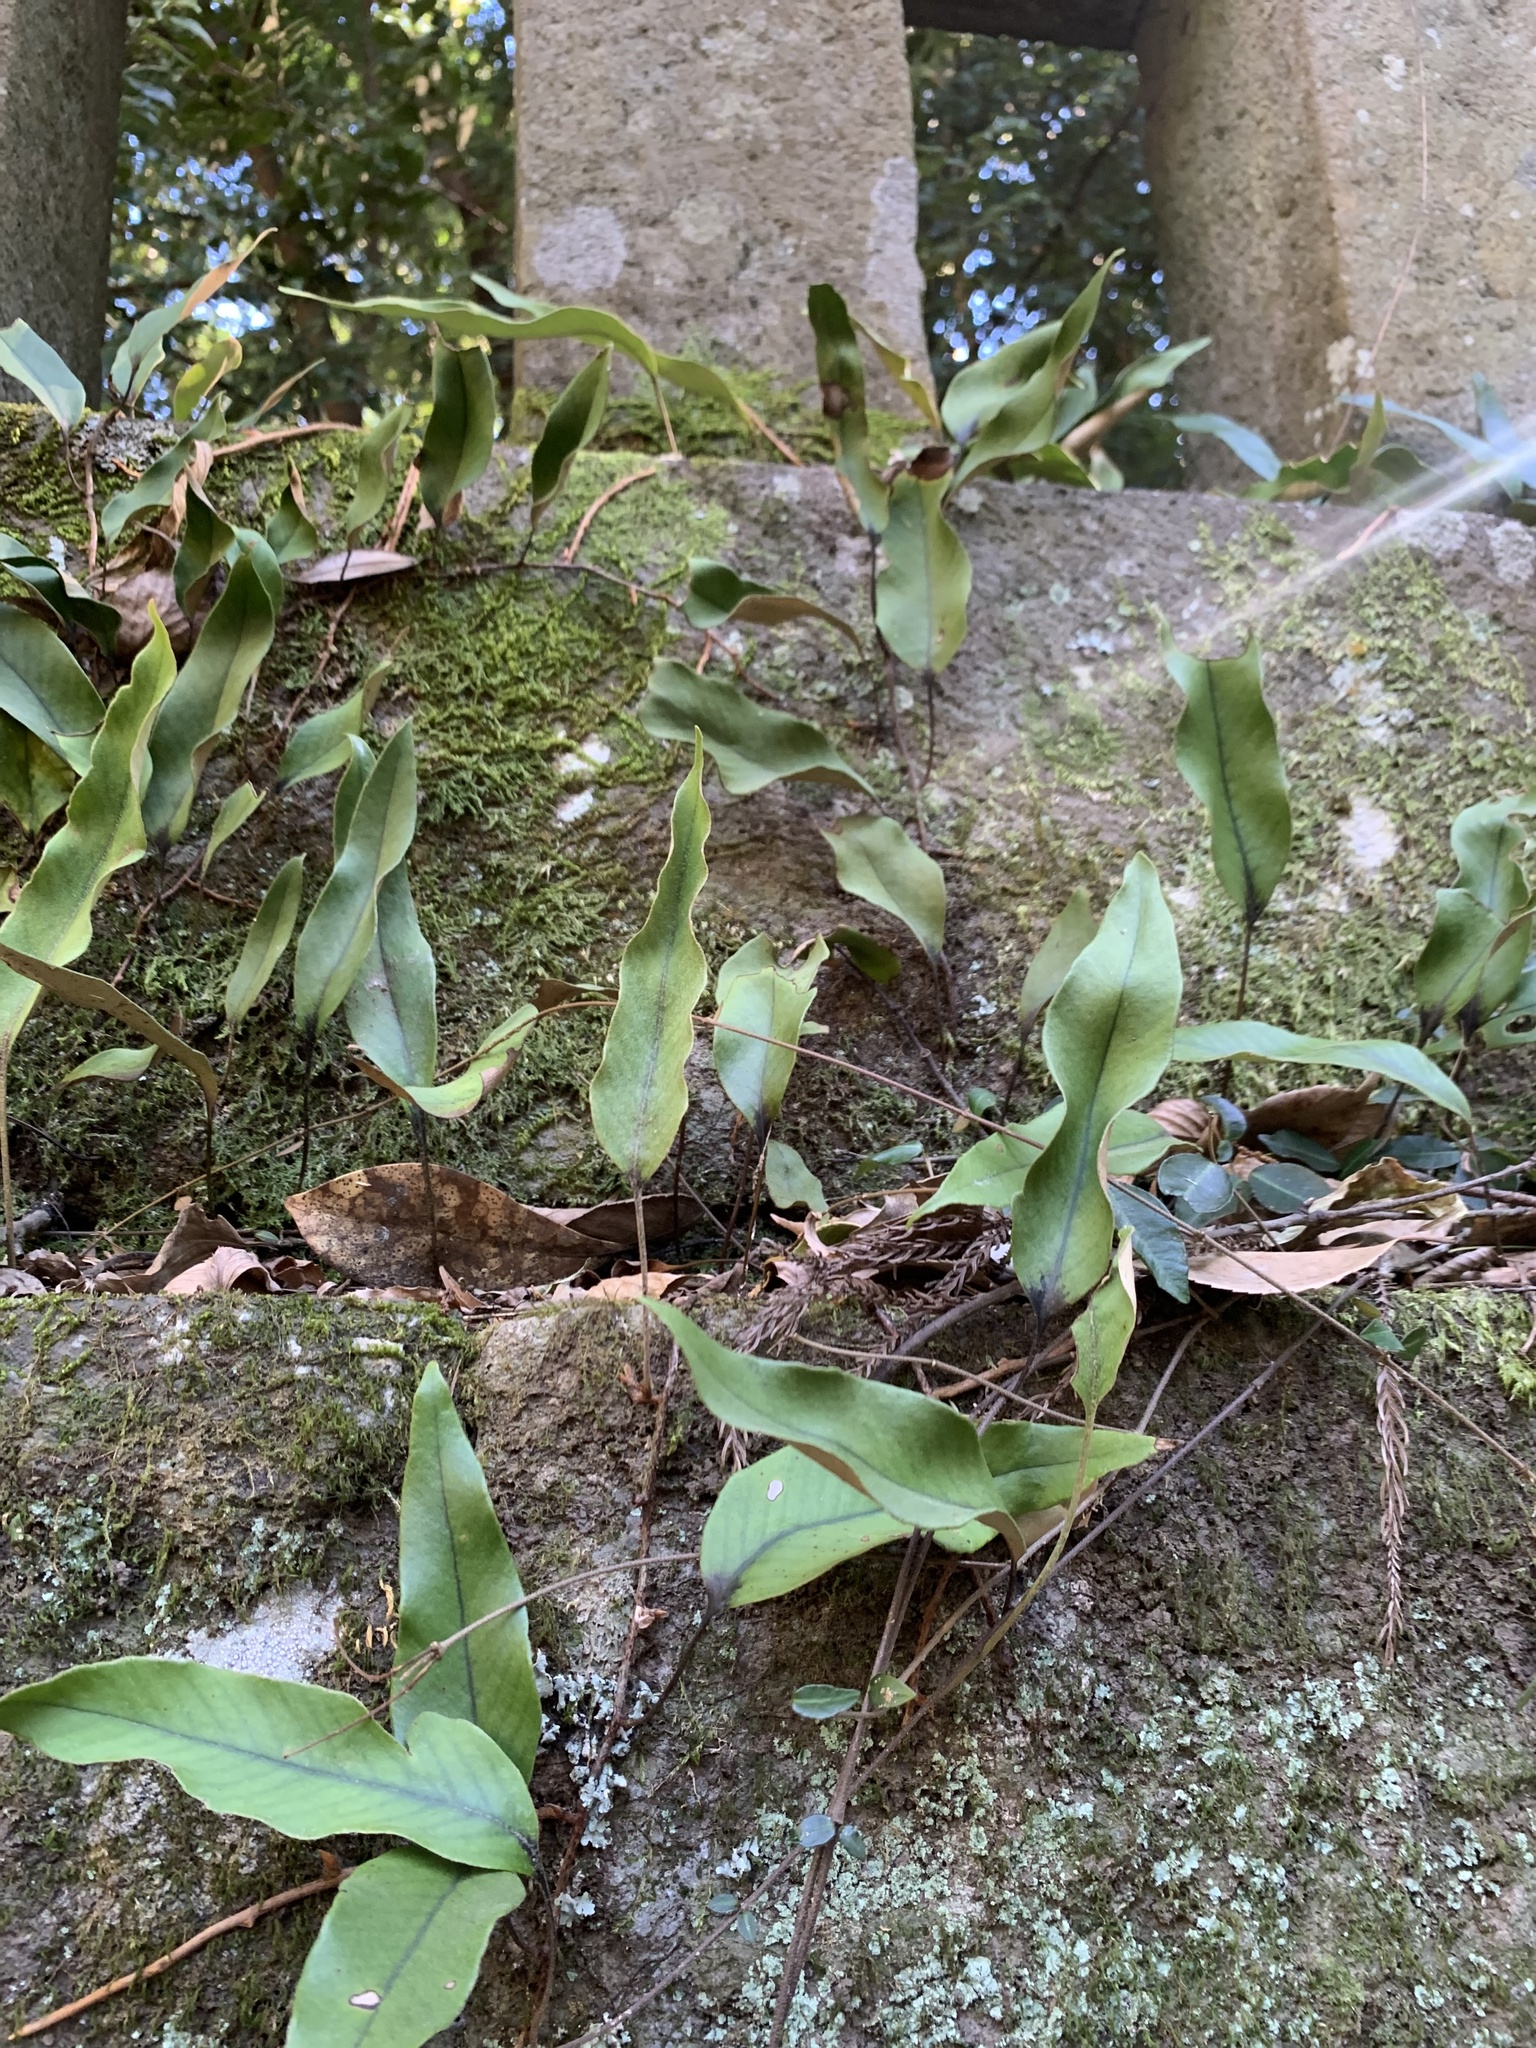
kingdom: Plantae
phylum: Tracheophyta
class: Polypodiopsida
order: Polypodiales
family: Polypodiaceae
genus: Pyrrosia
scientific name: Pyrrosia lingua
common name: Felt fern
